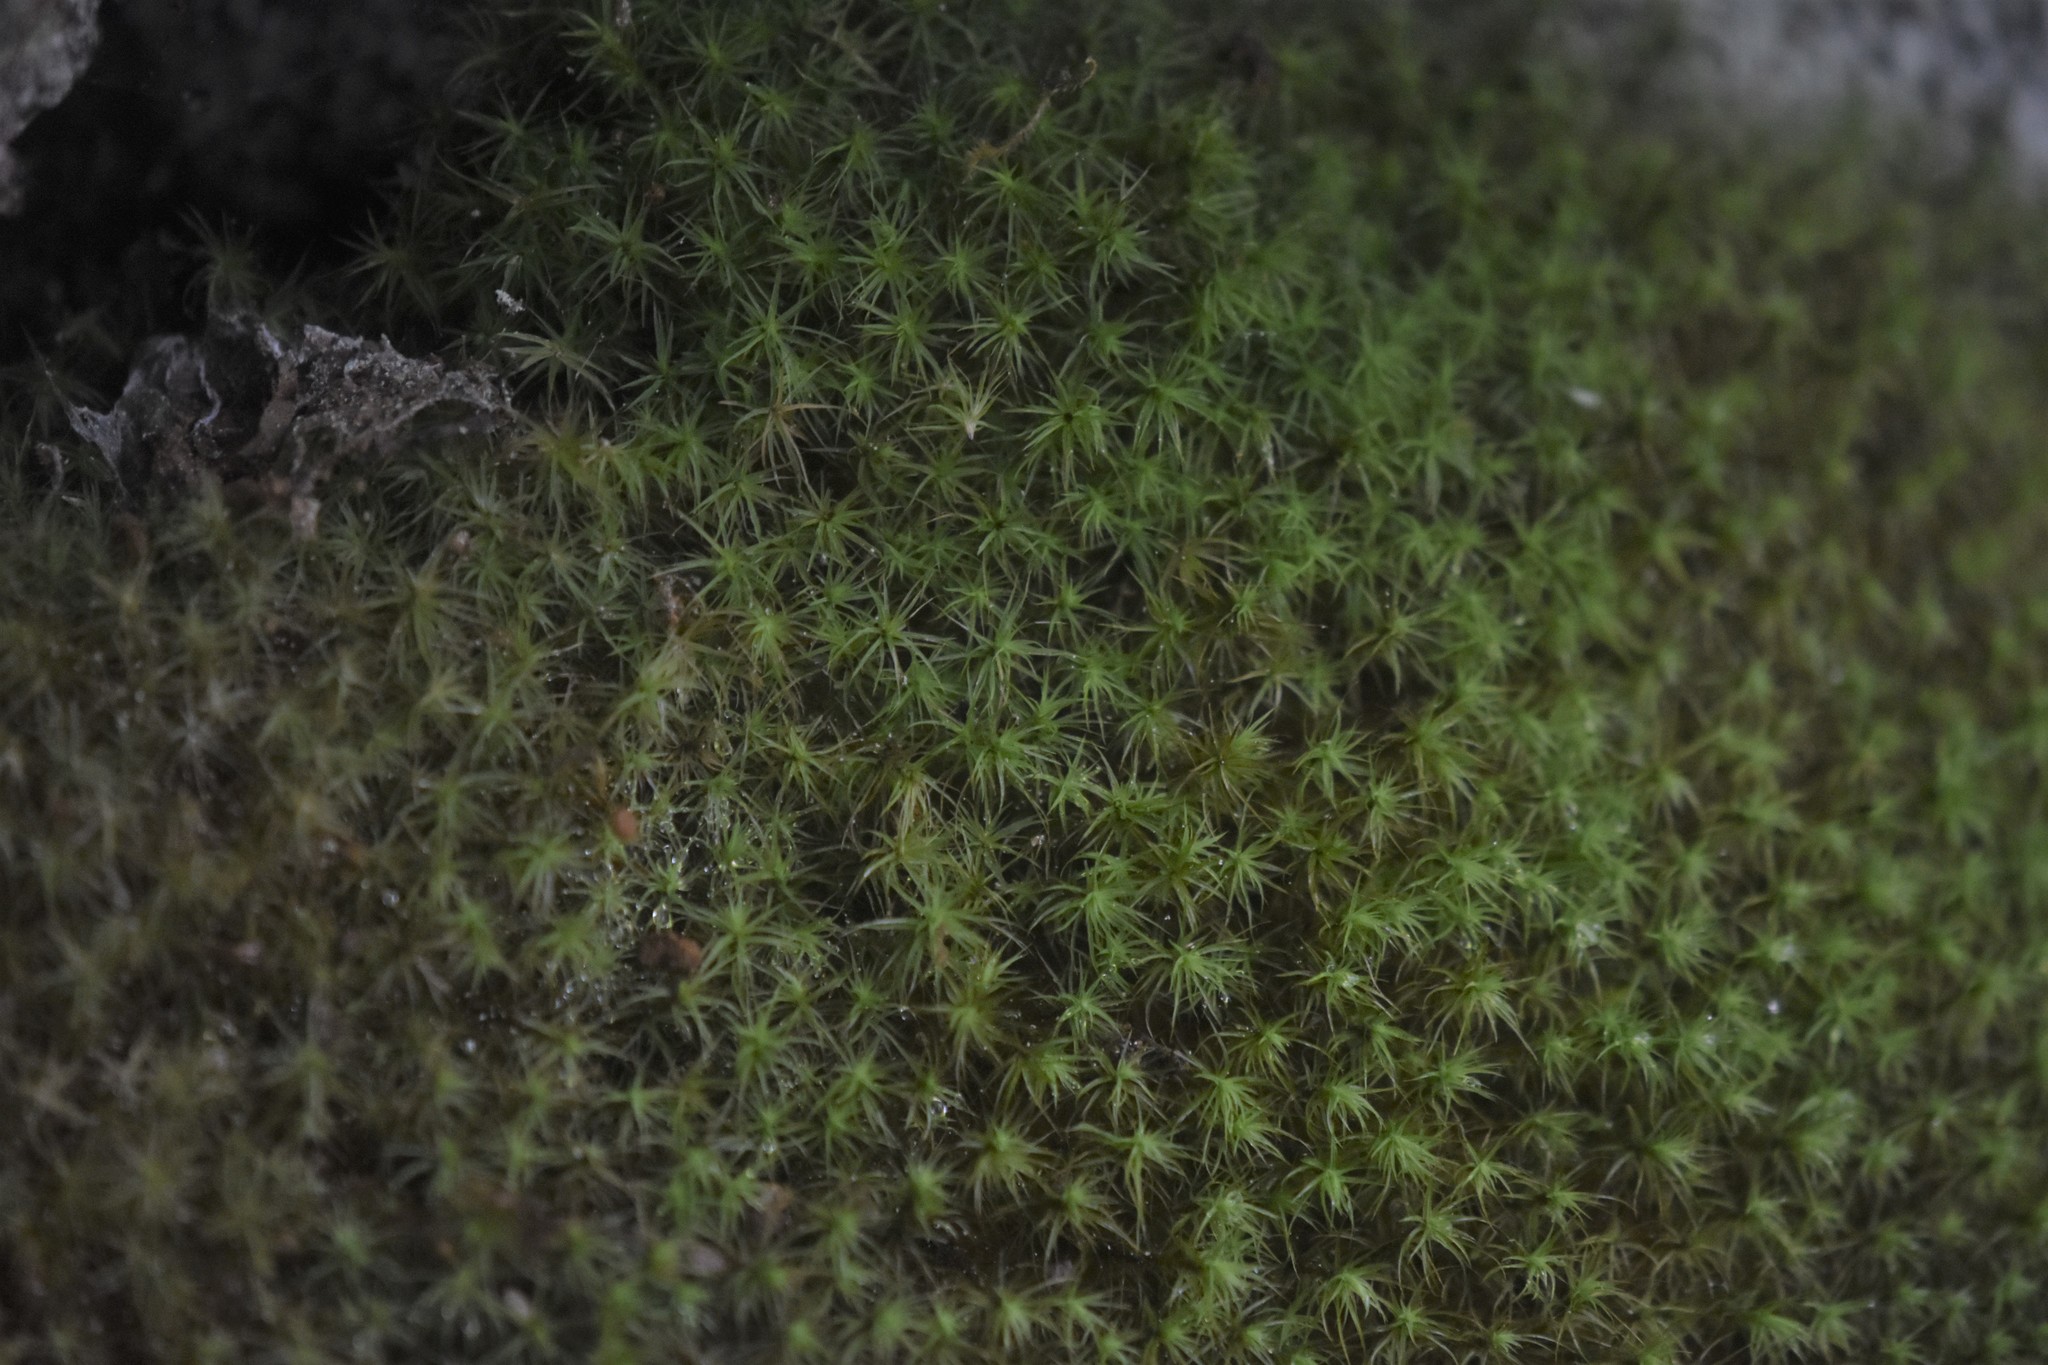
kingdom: Plantae
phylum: Bryophyta
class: Bryopsida
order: Bartramiales
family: Bartramiaceae
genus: Bartramia
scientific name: Bartramia ithyphylla
